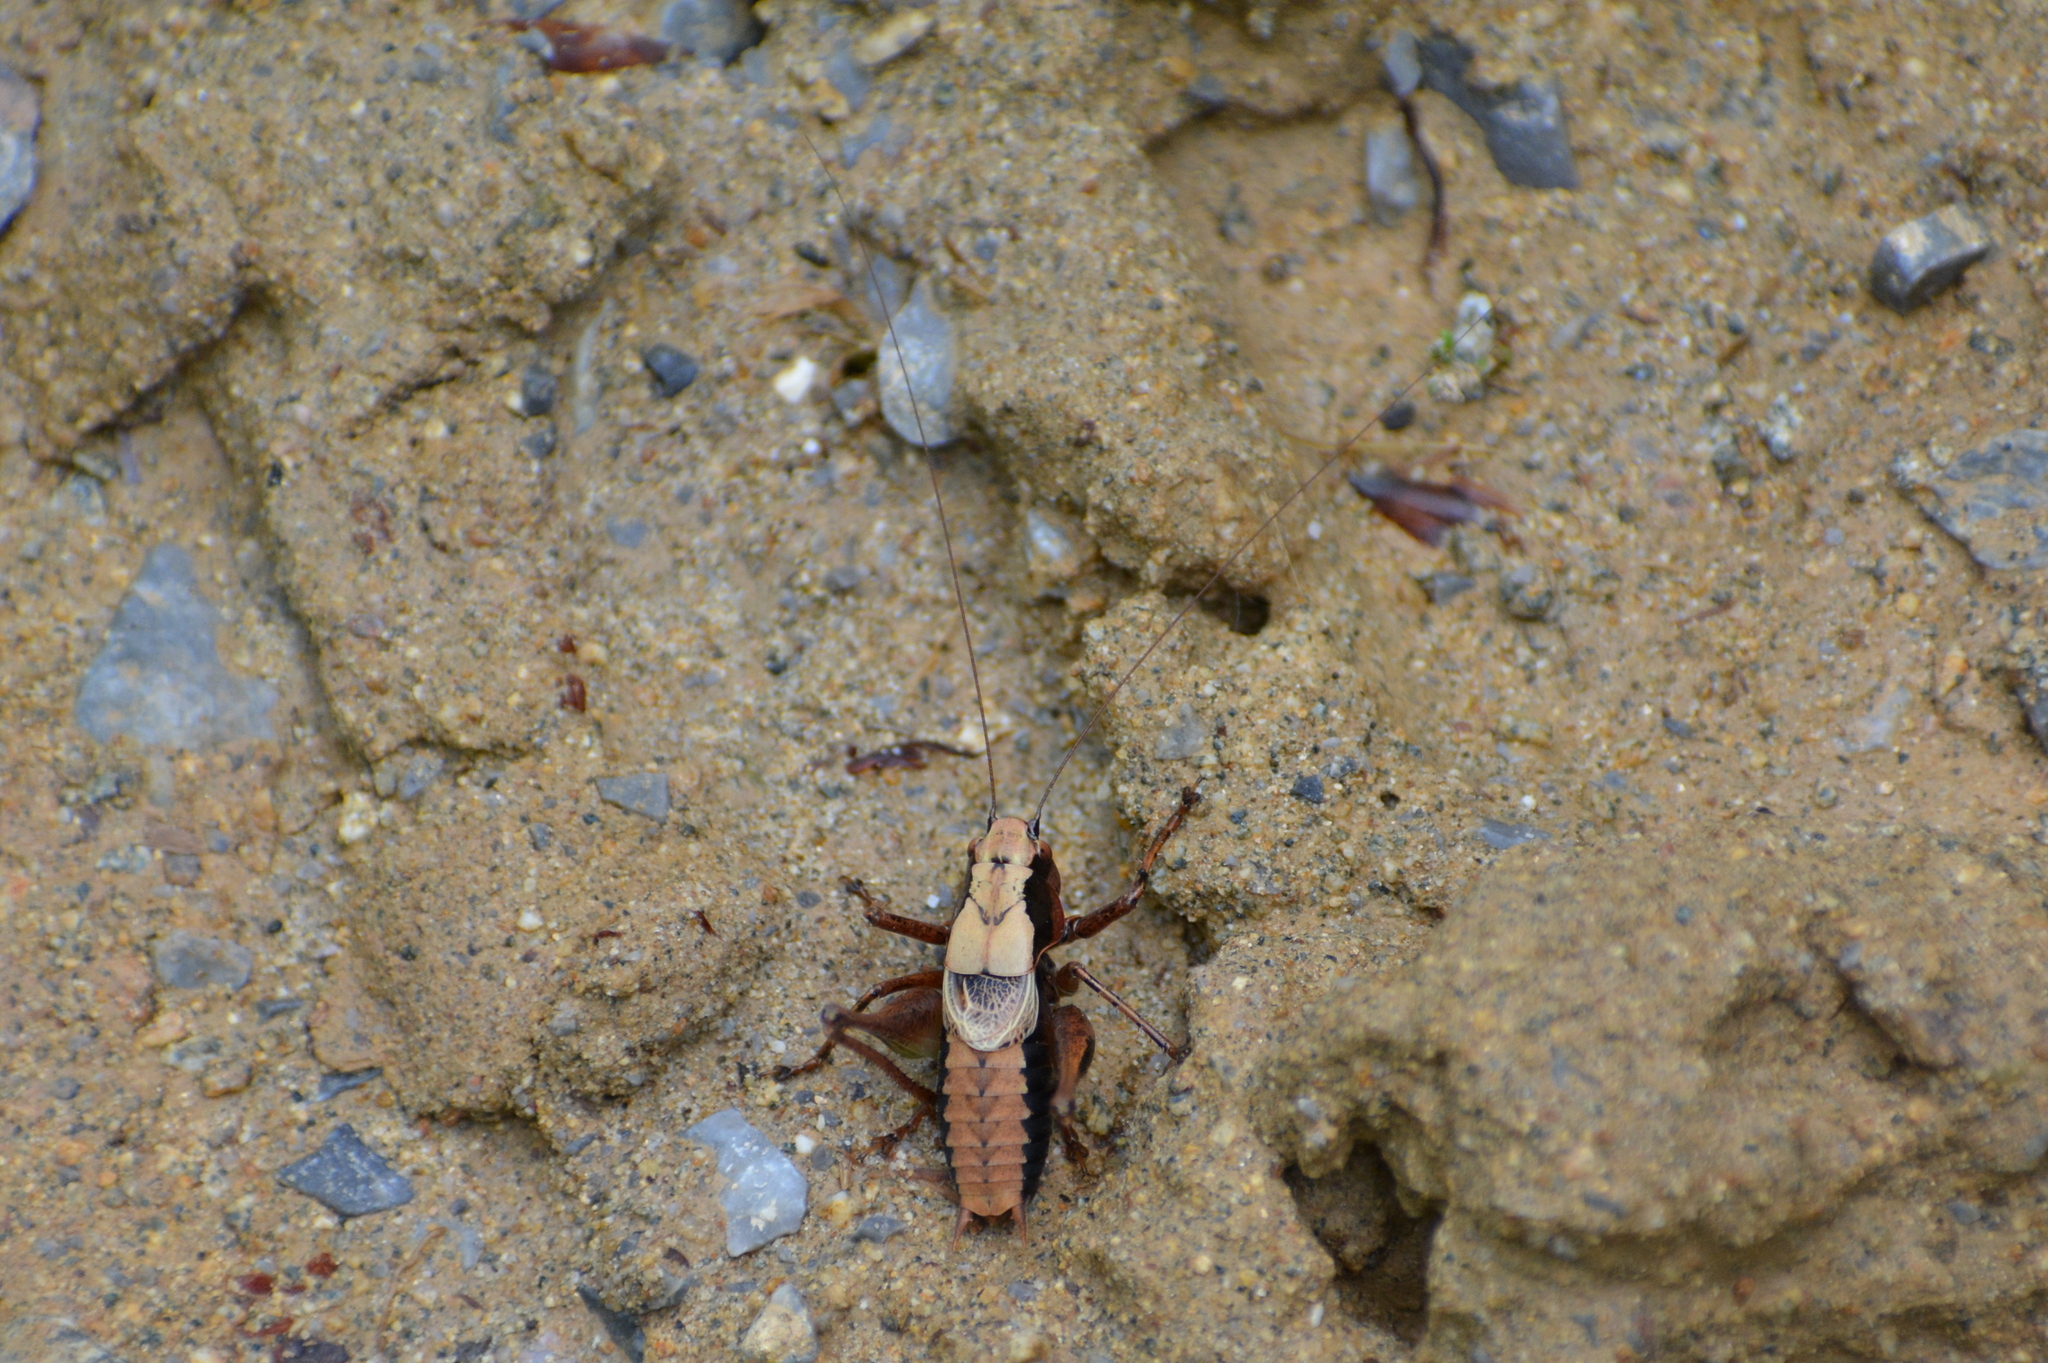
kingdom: Animalia
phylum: Arthropoda
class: Insecta
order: Orthoptera
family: Tettigoniidae
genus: Pholidoptera
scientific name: Pholidoptera griseoaptera
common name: Dark bush-cricket
